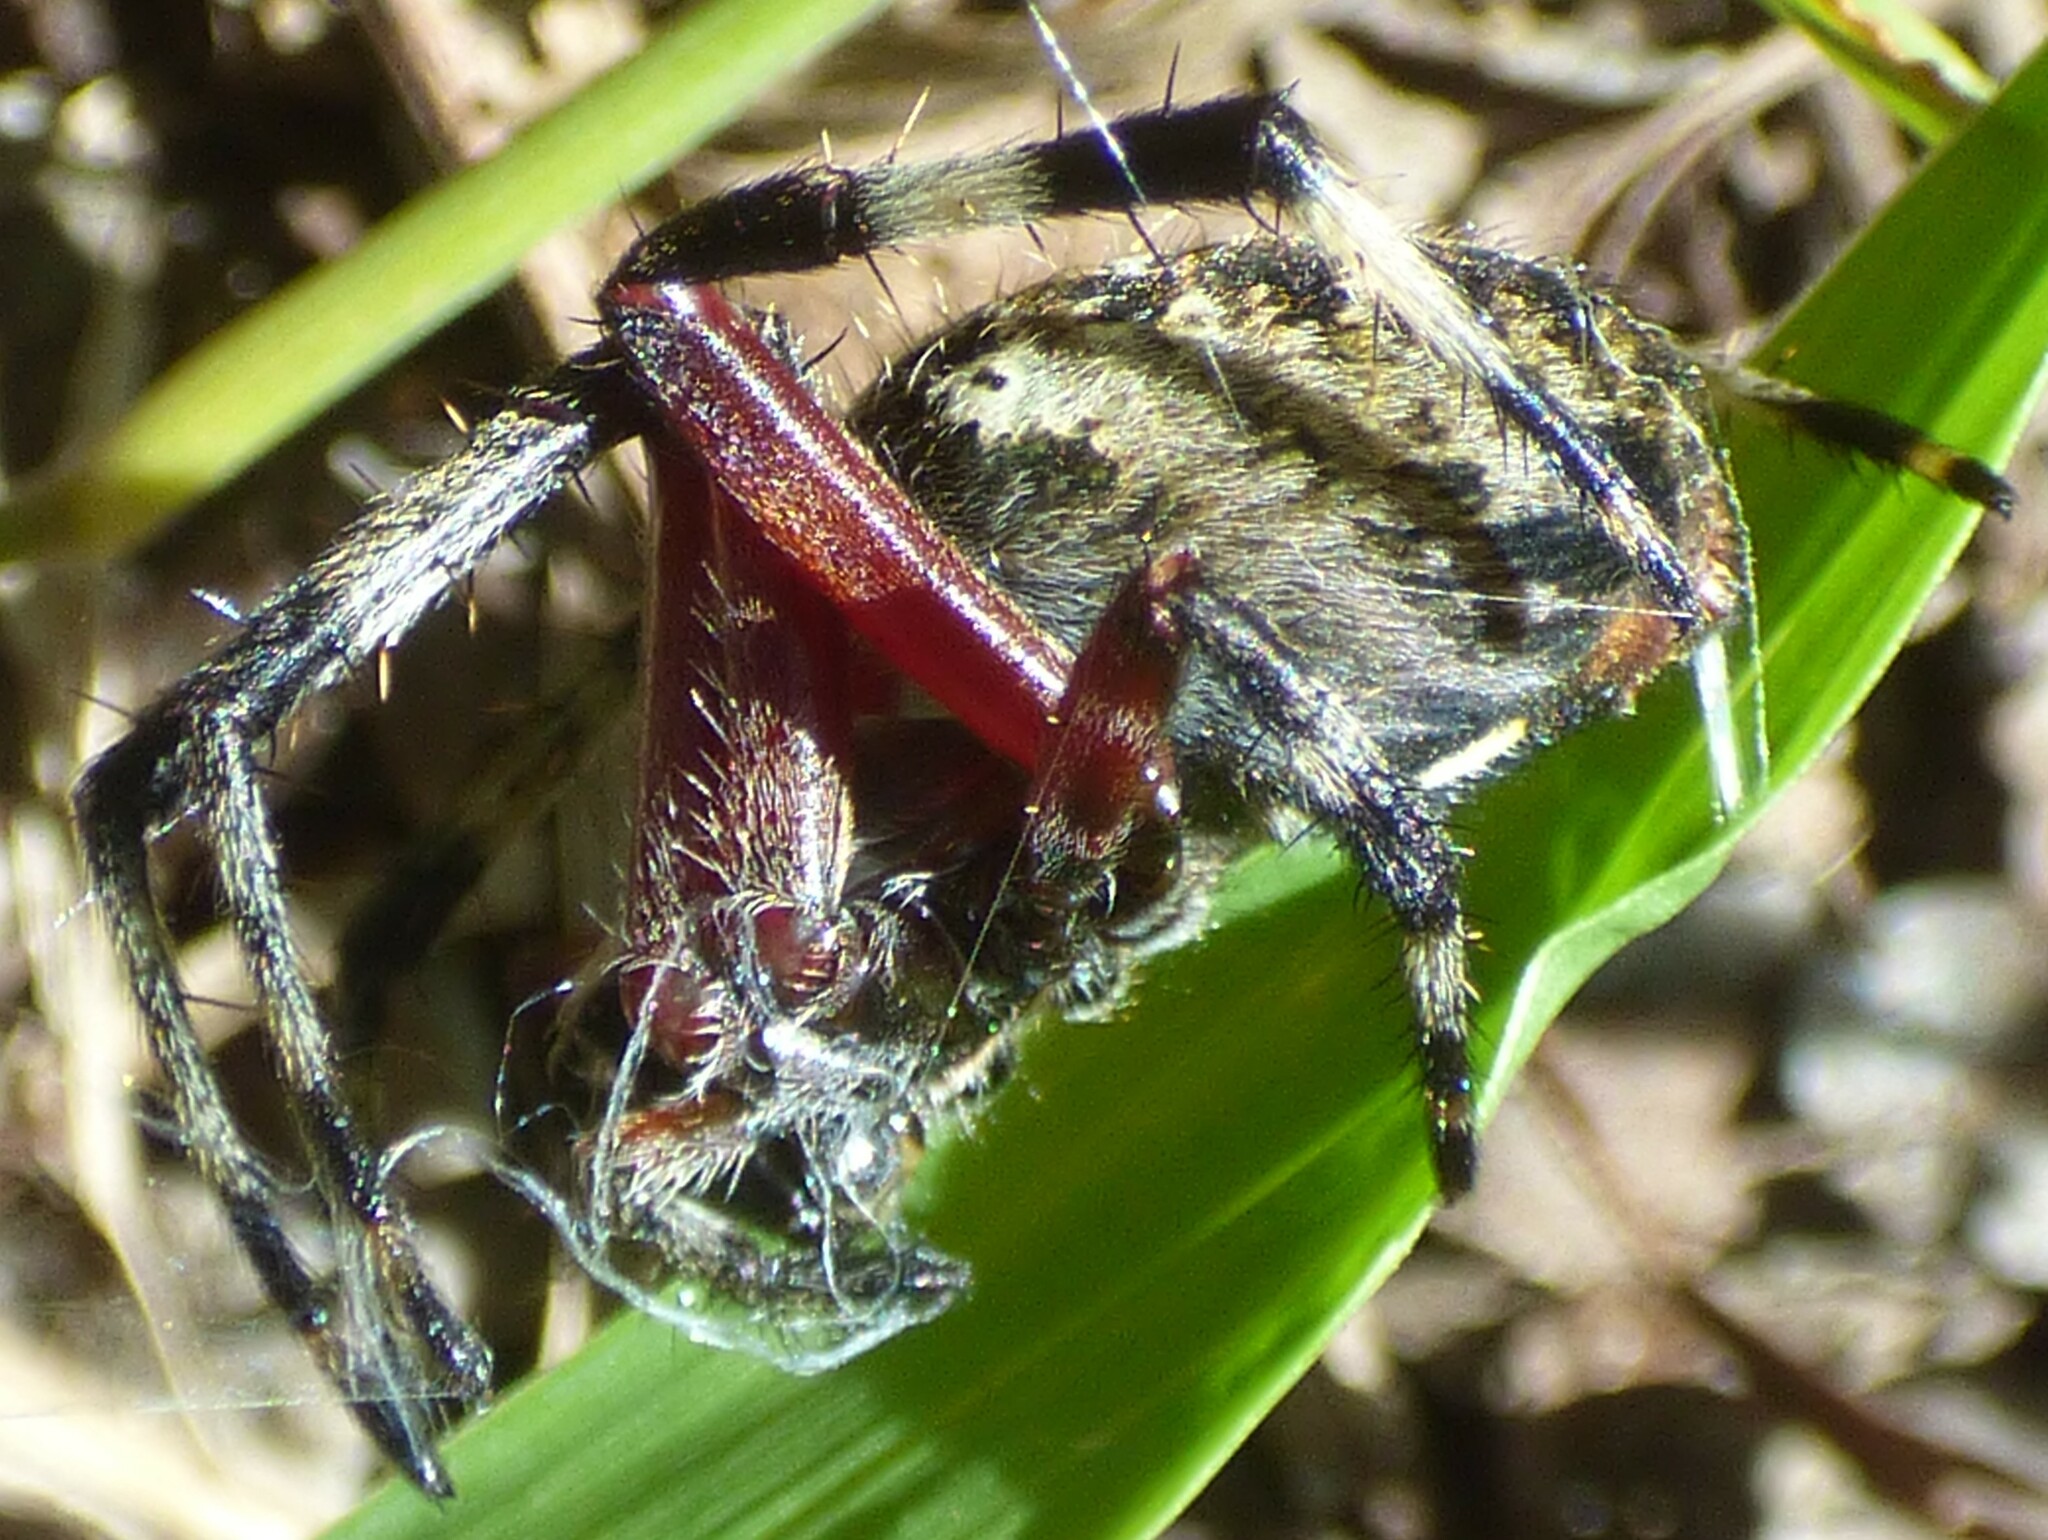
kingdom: Animalia
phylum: Arthropoda
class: Arachnida
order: Araneae
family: Araneidae
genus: Neoscona
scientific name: Neoscona domiciliorum
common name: Red-femured spotted orbweaver
